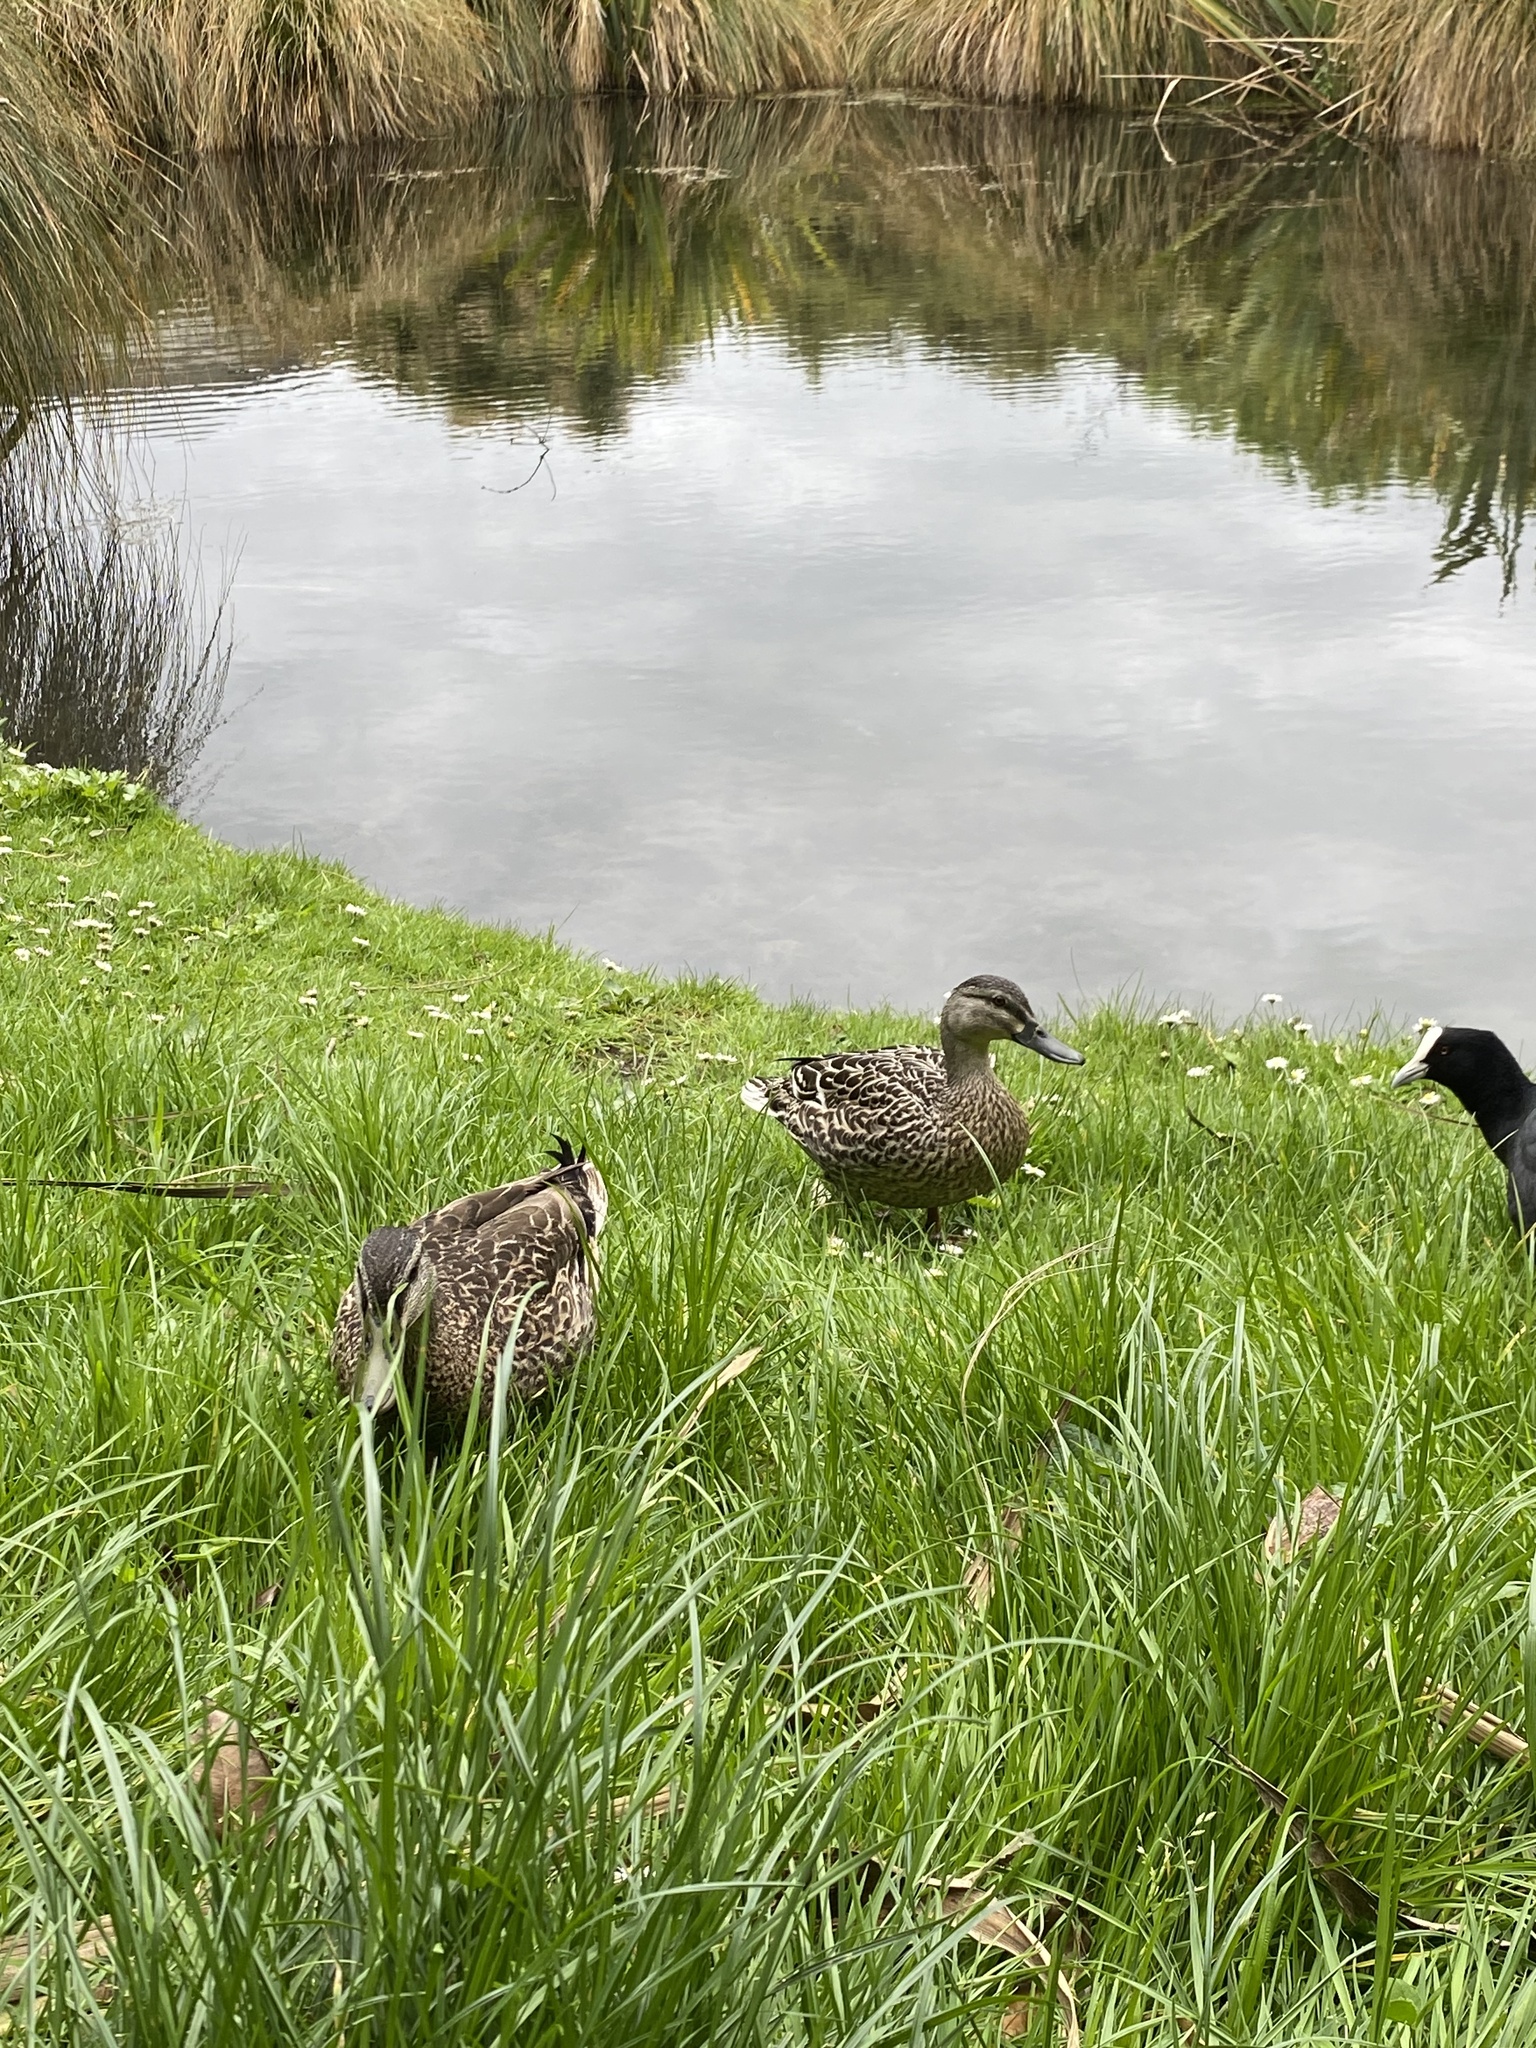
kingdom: Animalia
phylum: Chordata
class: Aves
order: Anseriformes
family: Anatidae
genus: Anas
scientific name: Anas
